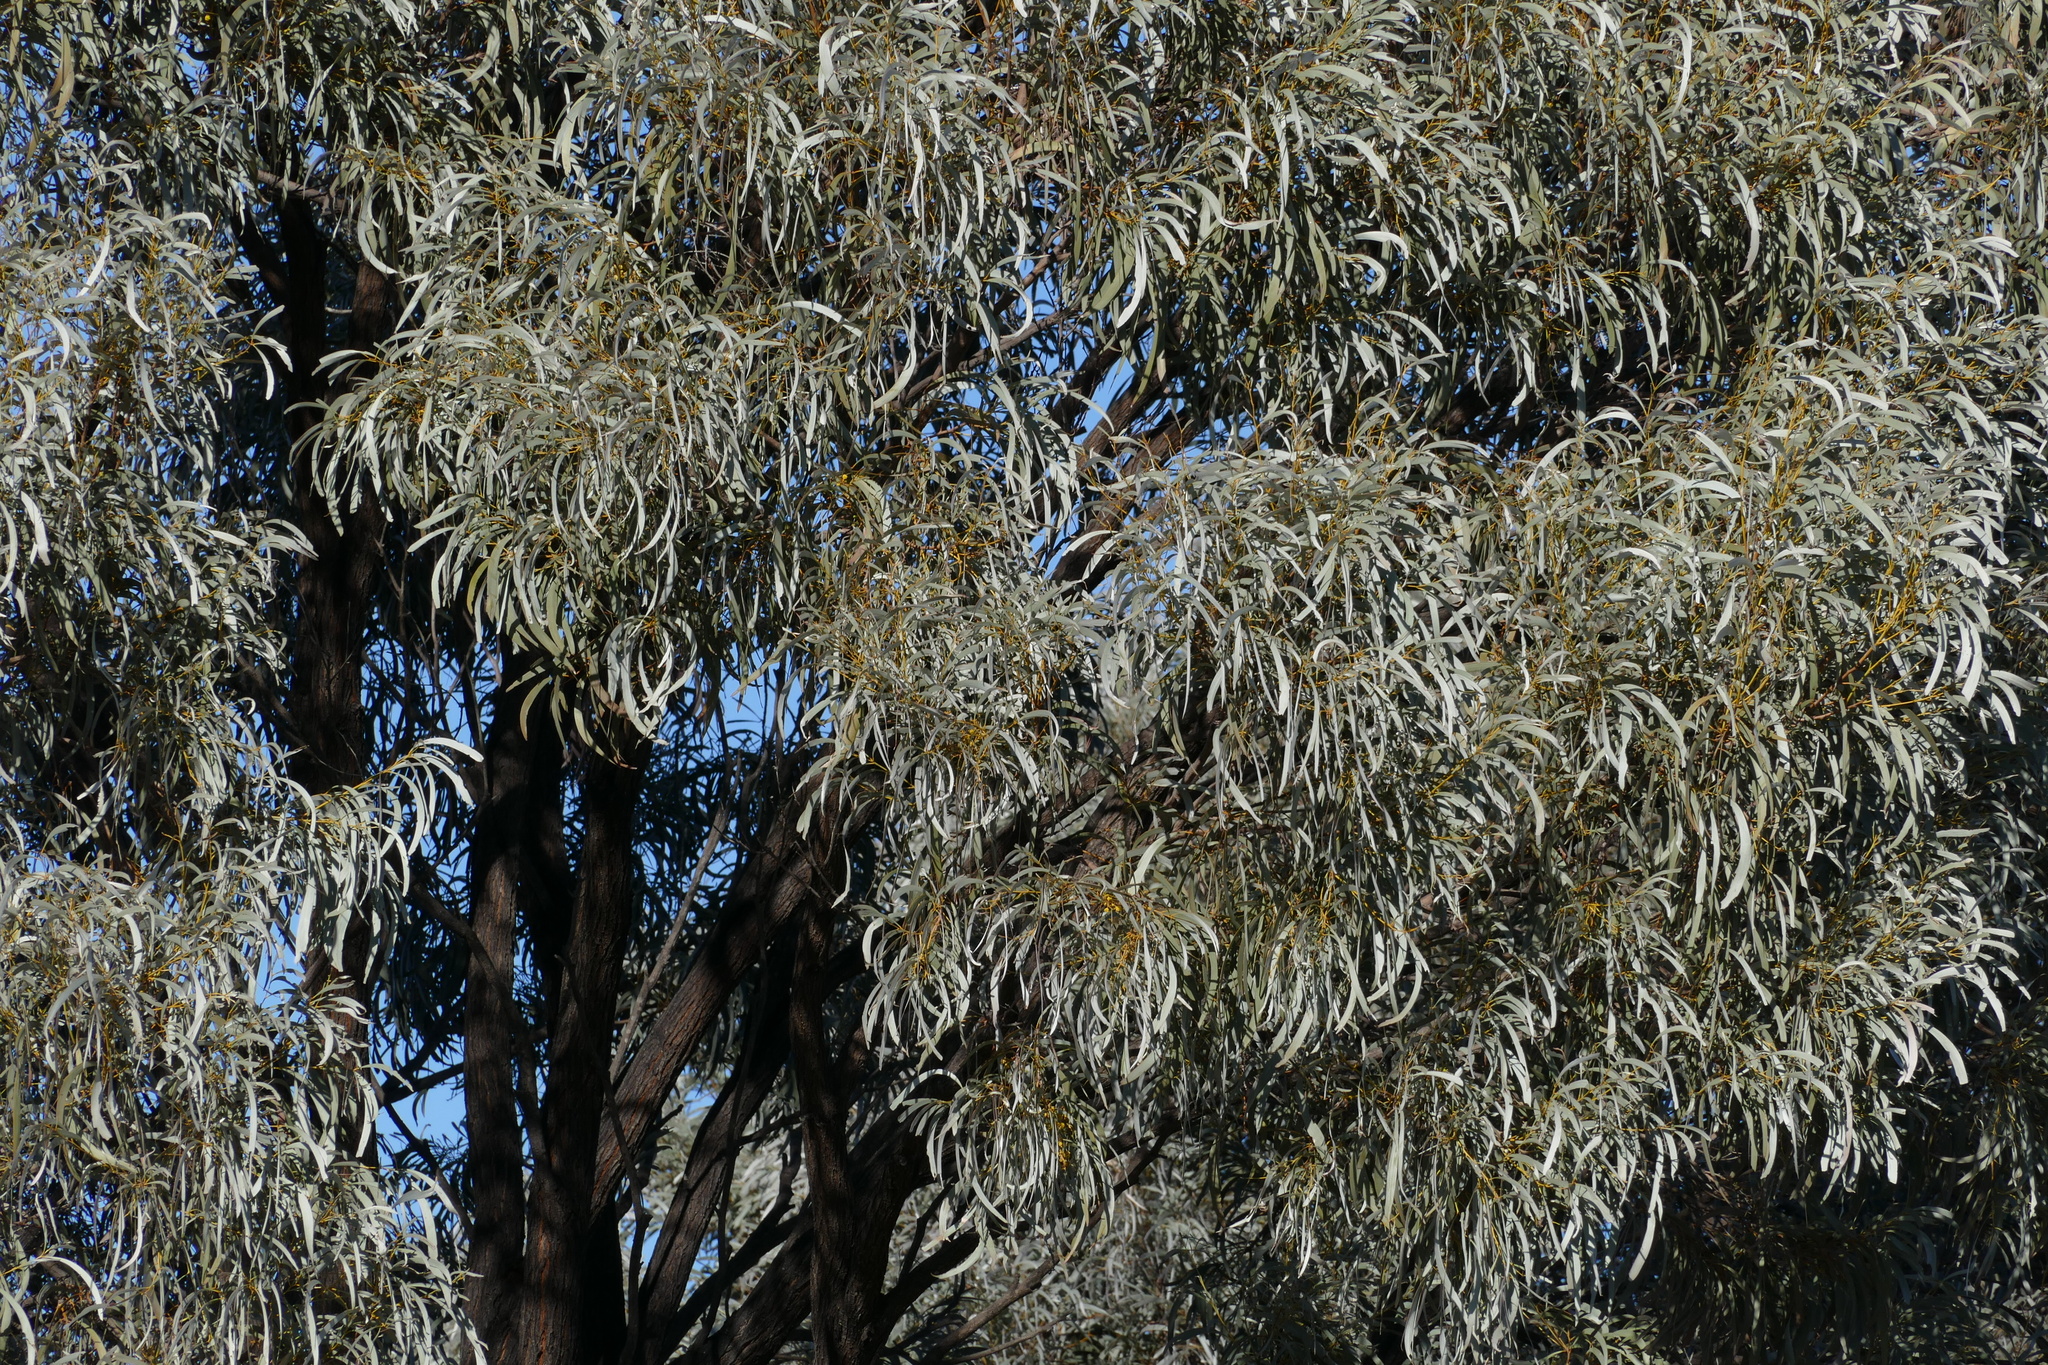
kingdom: Plantae
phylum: Tracheophyta
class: Magnoliopsida
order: Fabales
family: Fabaceae
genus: Acacia
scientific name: Acacia harpophylla
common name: Brigalow
